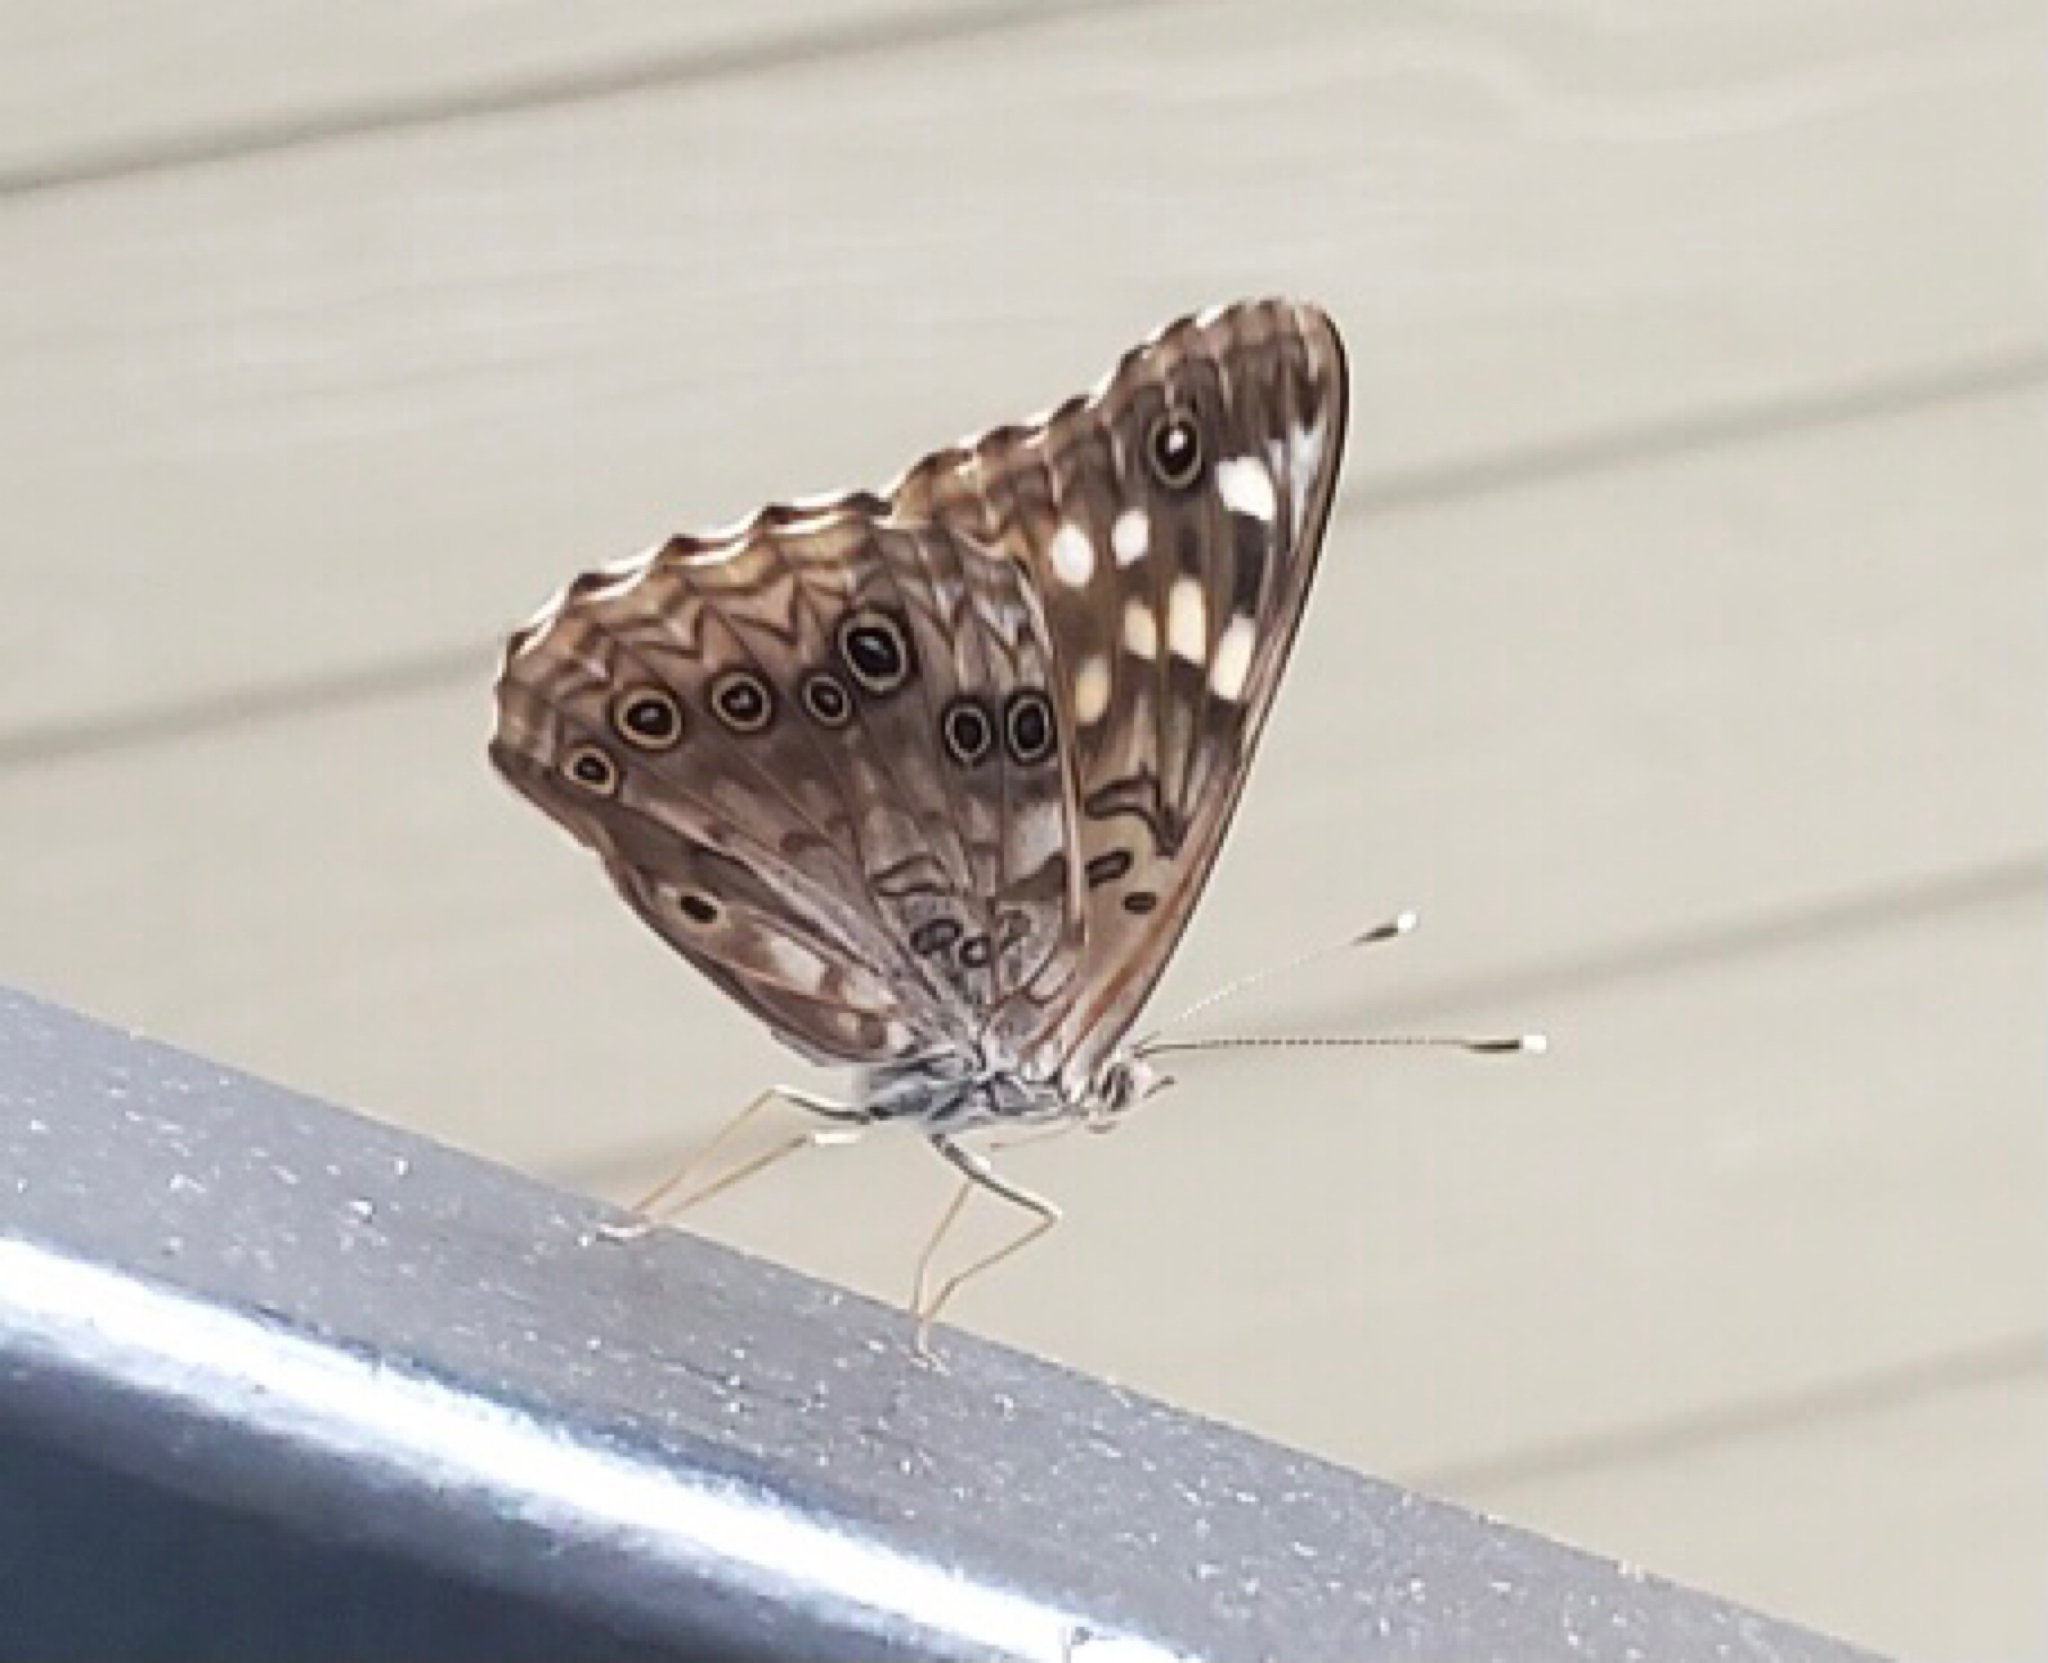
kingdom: Animalia
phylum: Arthropoda
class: Insecta
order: Lepidoptera
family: Nymphalidae
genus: Asterocampa
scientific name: Asterocampa celtis
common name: Hackberry emperor
